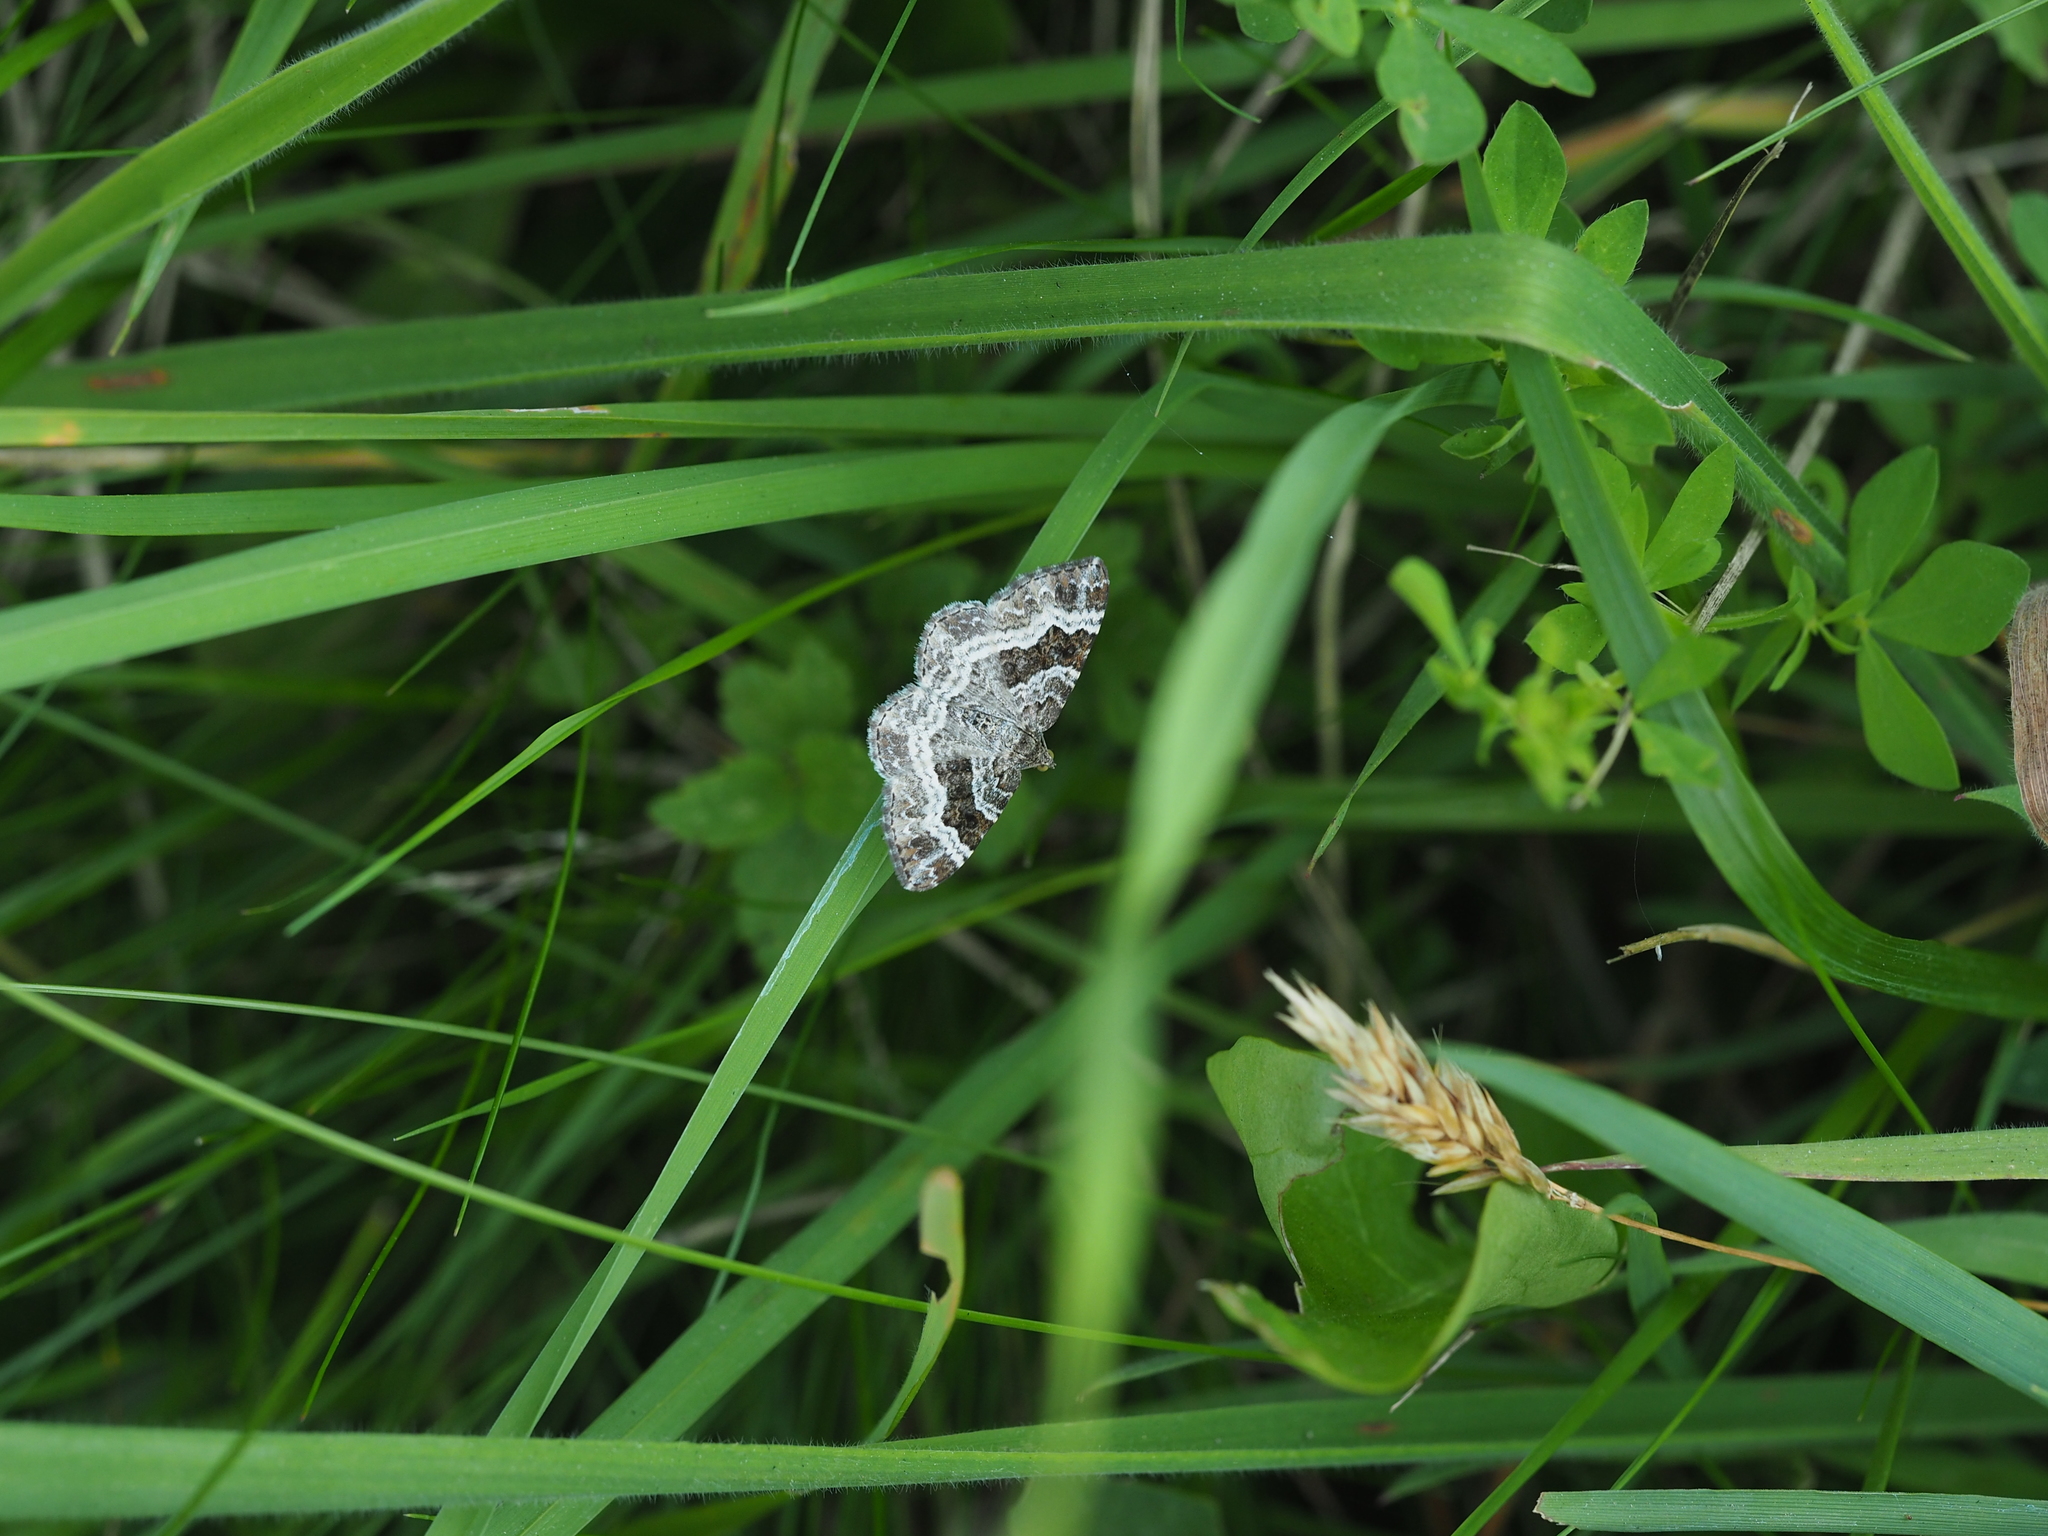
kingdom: Animalia
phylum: Arthropoda
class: Insecta
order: Lepidoptera
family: Geometridae
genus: Epirrhoe
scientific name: Epirrhoe alternata
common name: Common carpet
